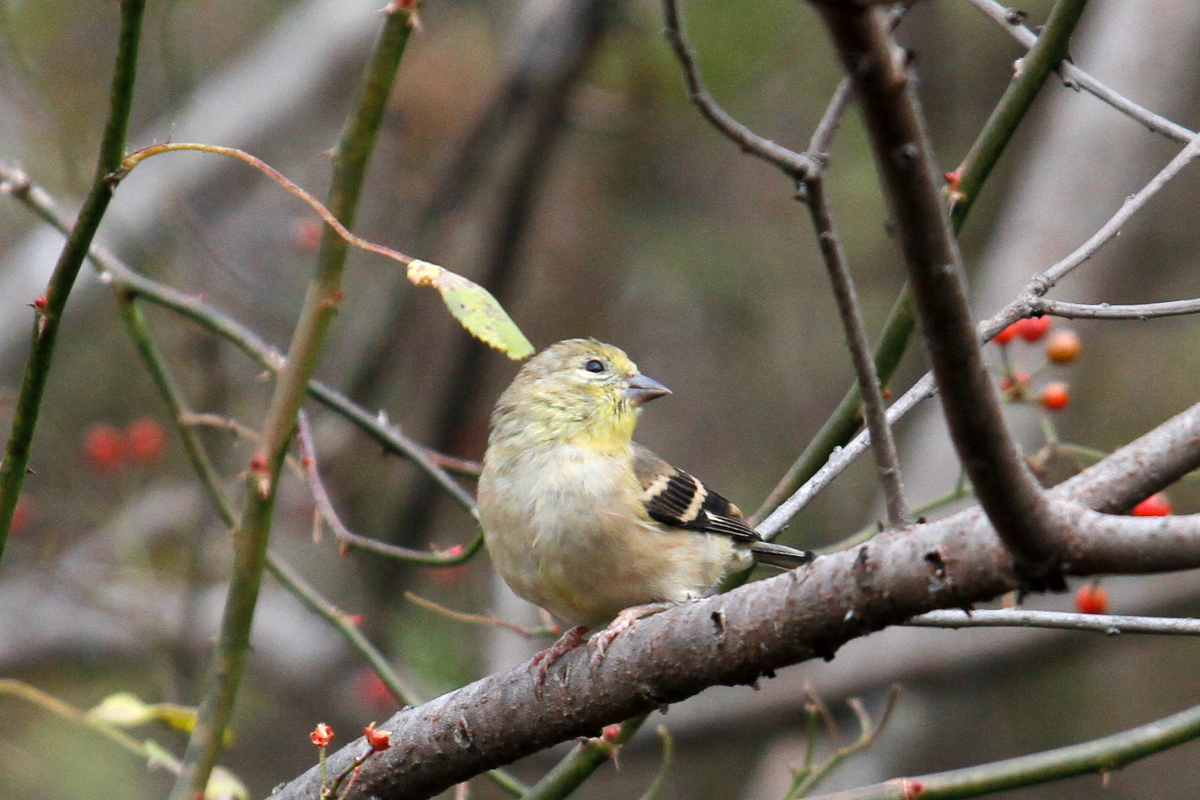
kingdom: Animalia
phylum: Chordata
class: Aves
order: Passeriformes
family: Fringillidae
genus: Spinus
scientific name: Spinus tristis
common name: American goldfinch
